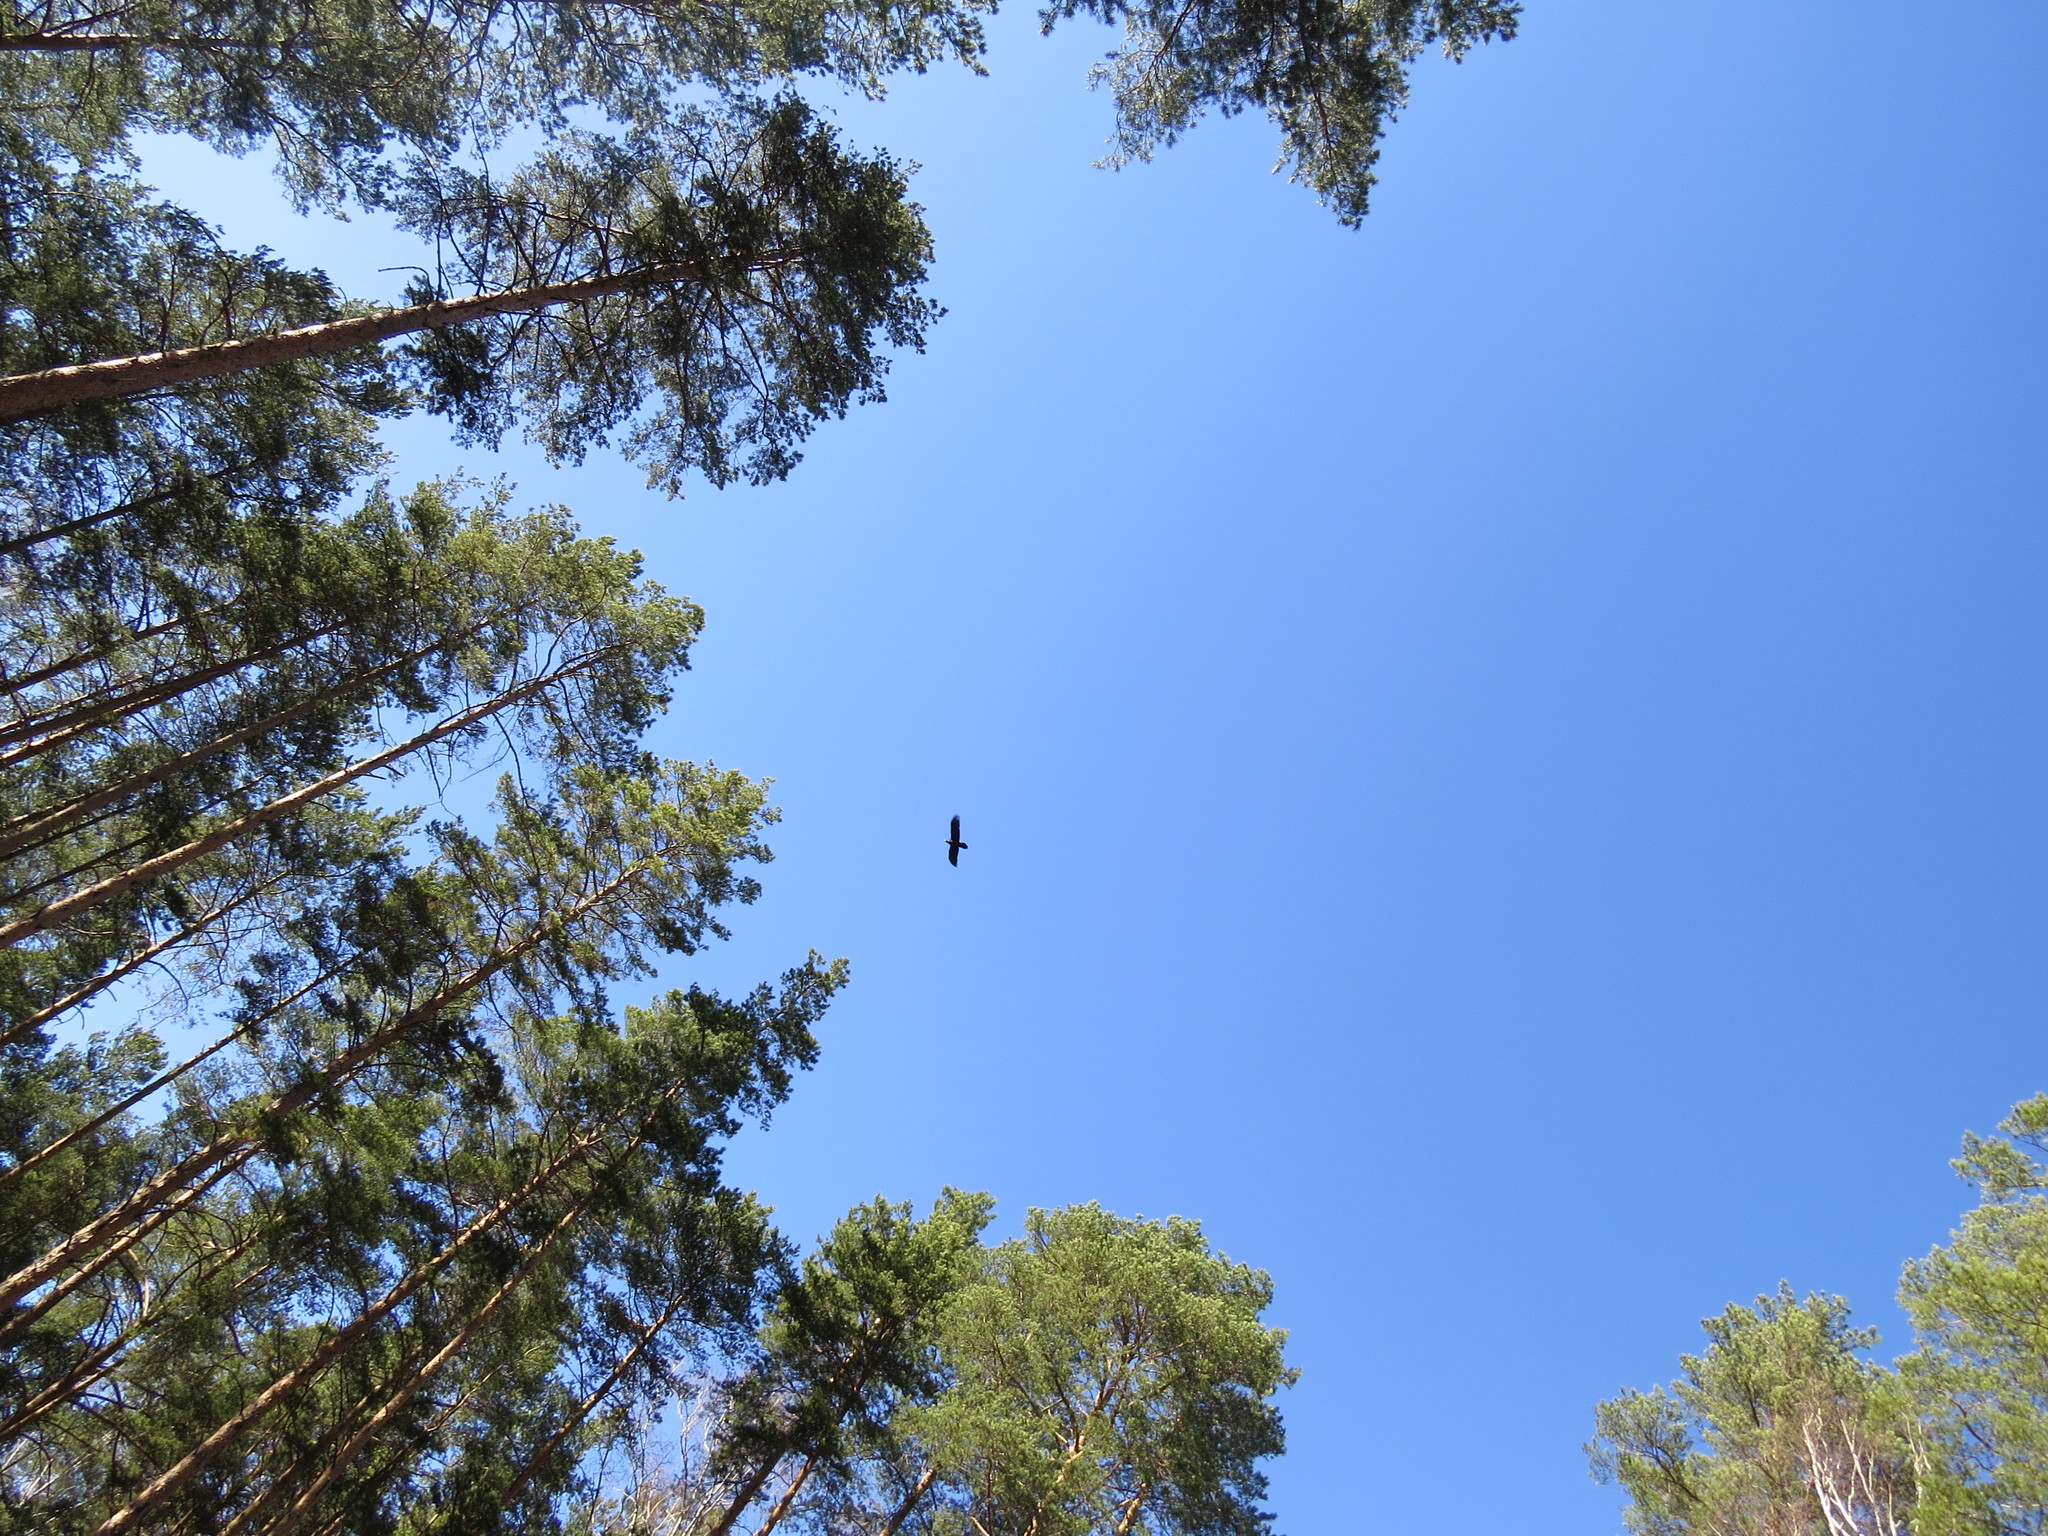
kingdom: Animalia
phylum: Chordata
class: Aves
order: Passeriformes
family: Corvidae
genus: Corvus
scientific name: Corvus corax
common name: Common raven
